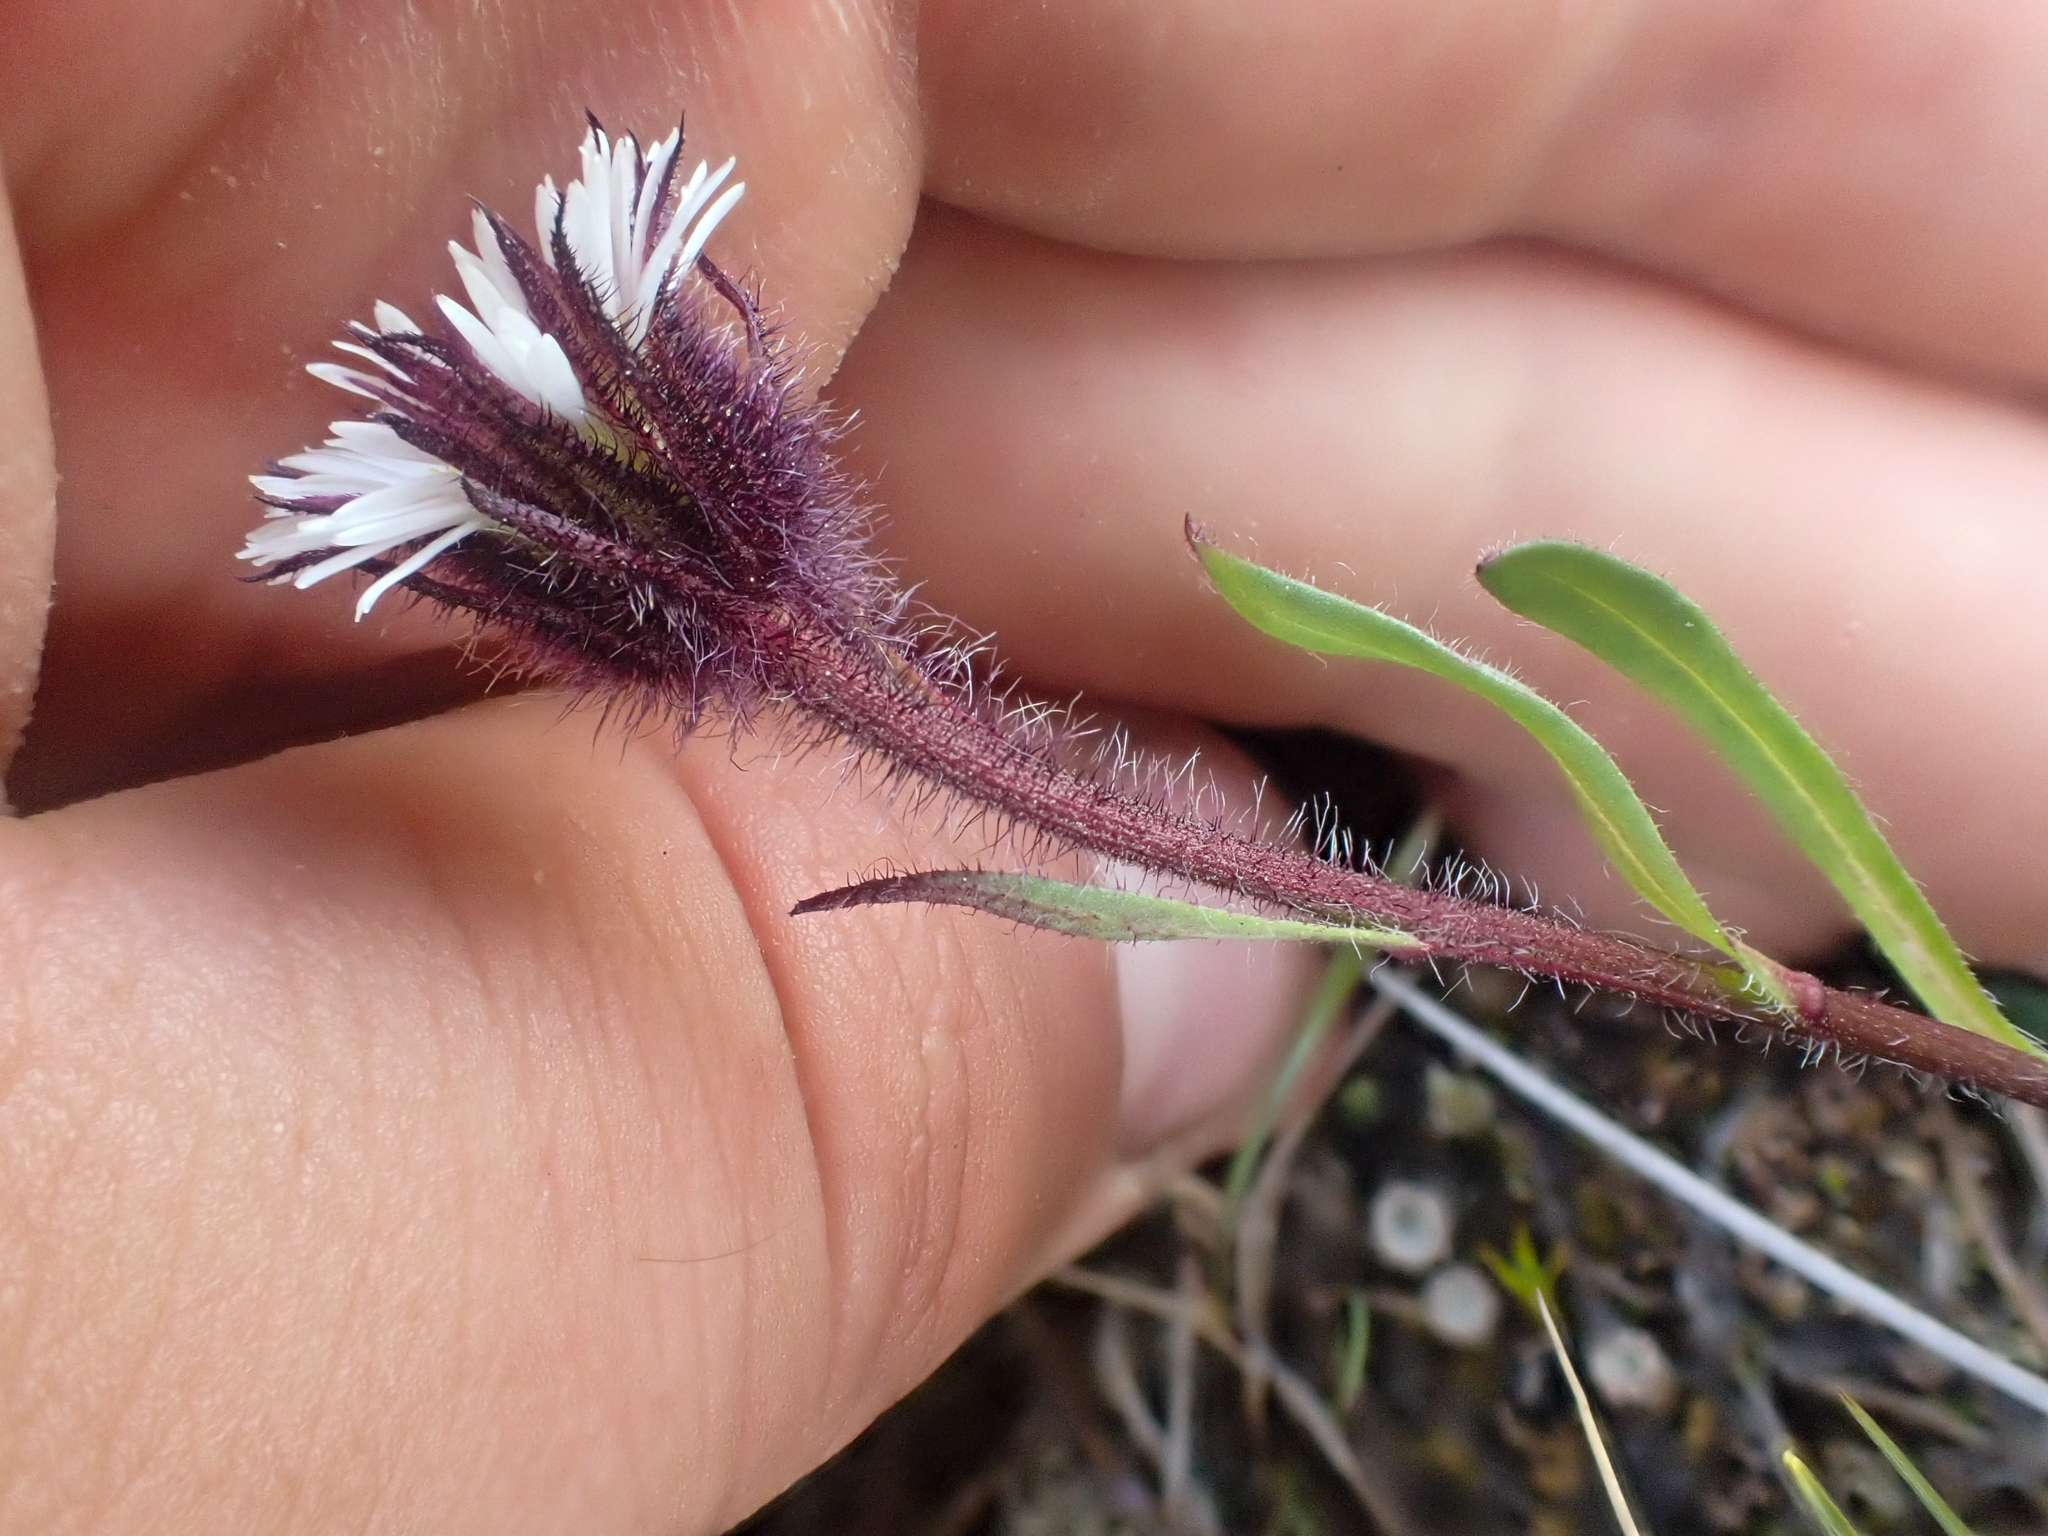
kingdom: Plantae
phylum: Tracheophyta
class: Magnoliopsida
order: Asterales
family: Asteraceae
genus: Erigeron
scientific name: Erigeron humilis
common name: Arctic-alpine fleabane
